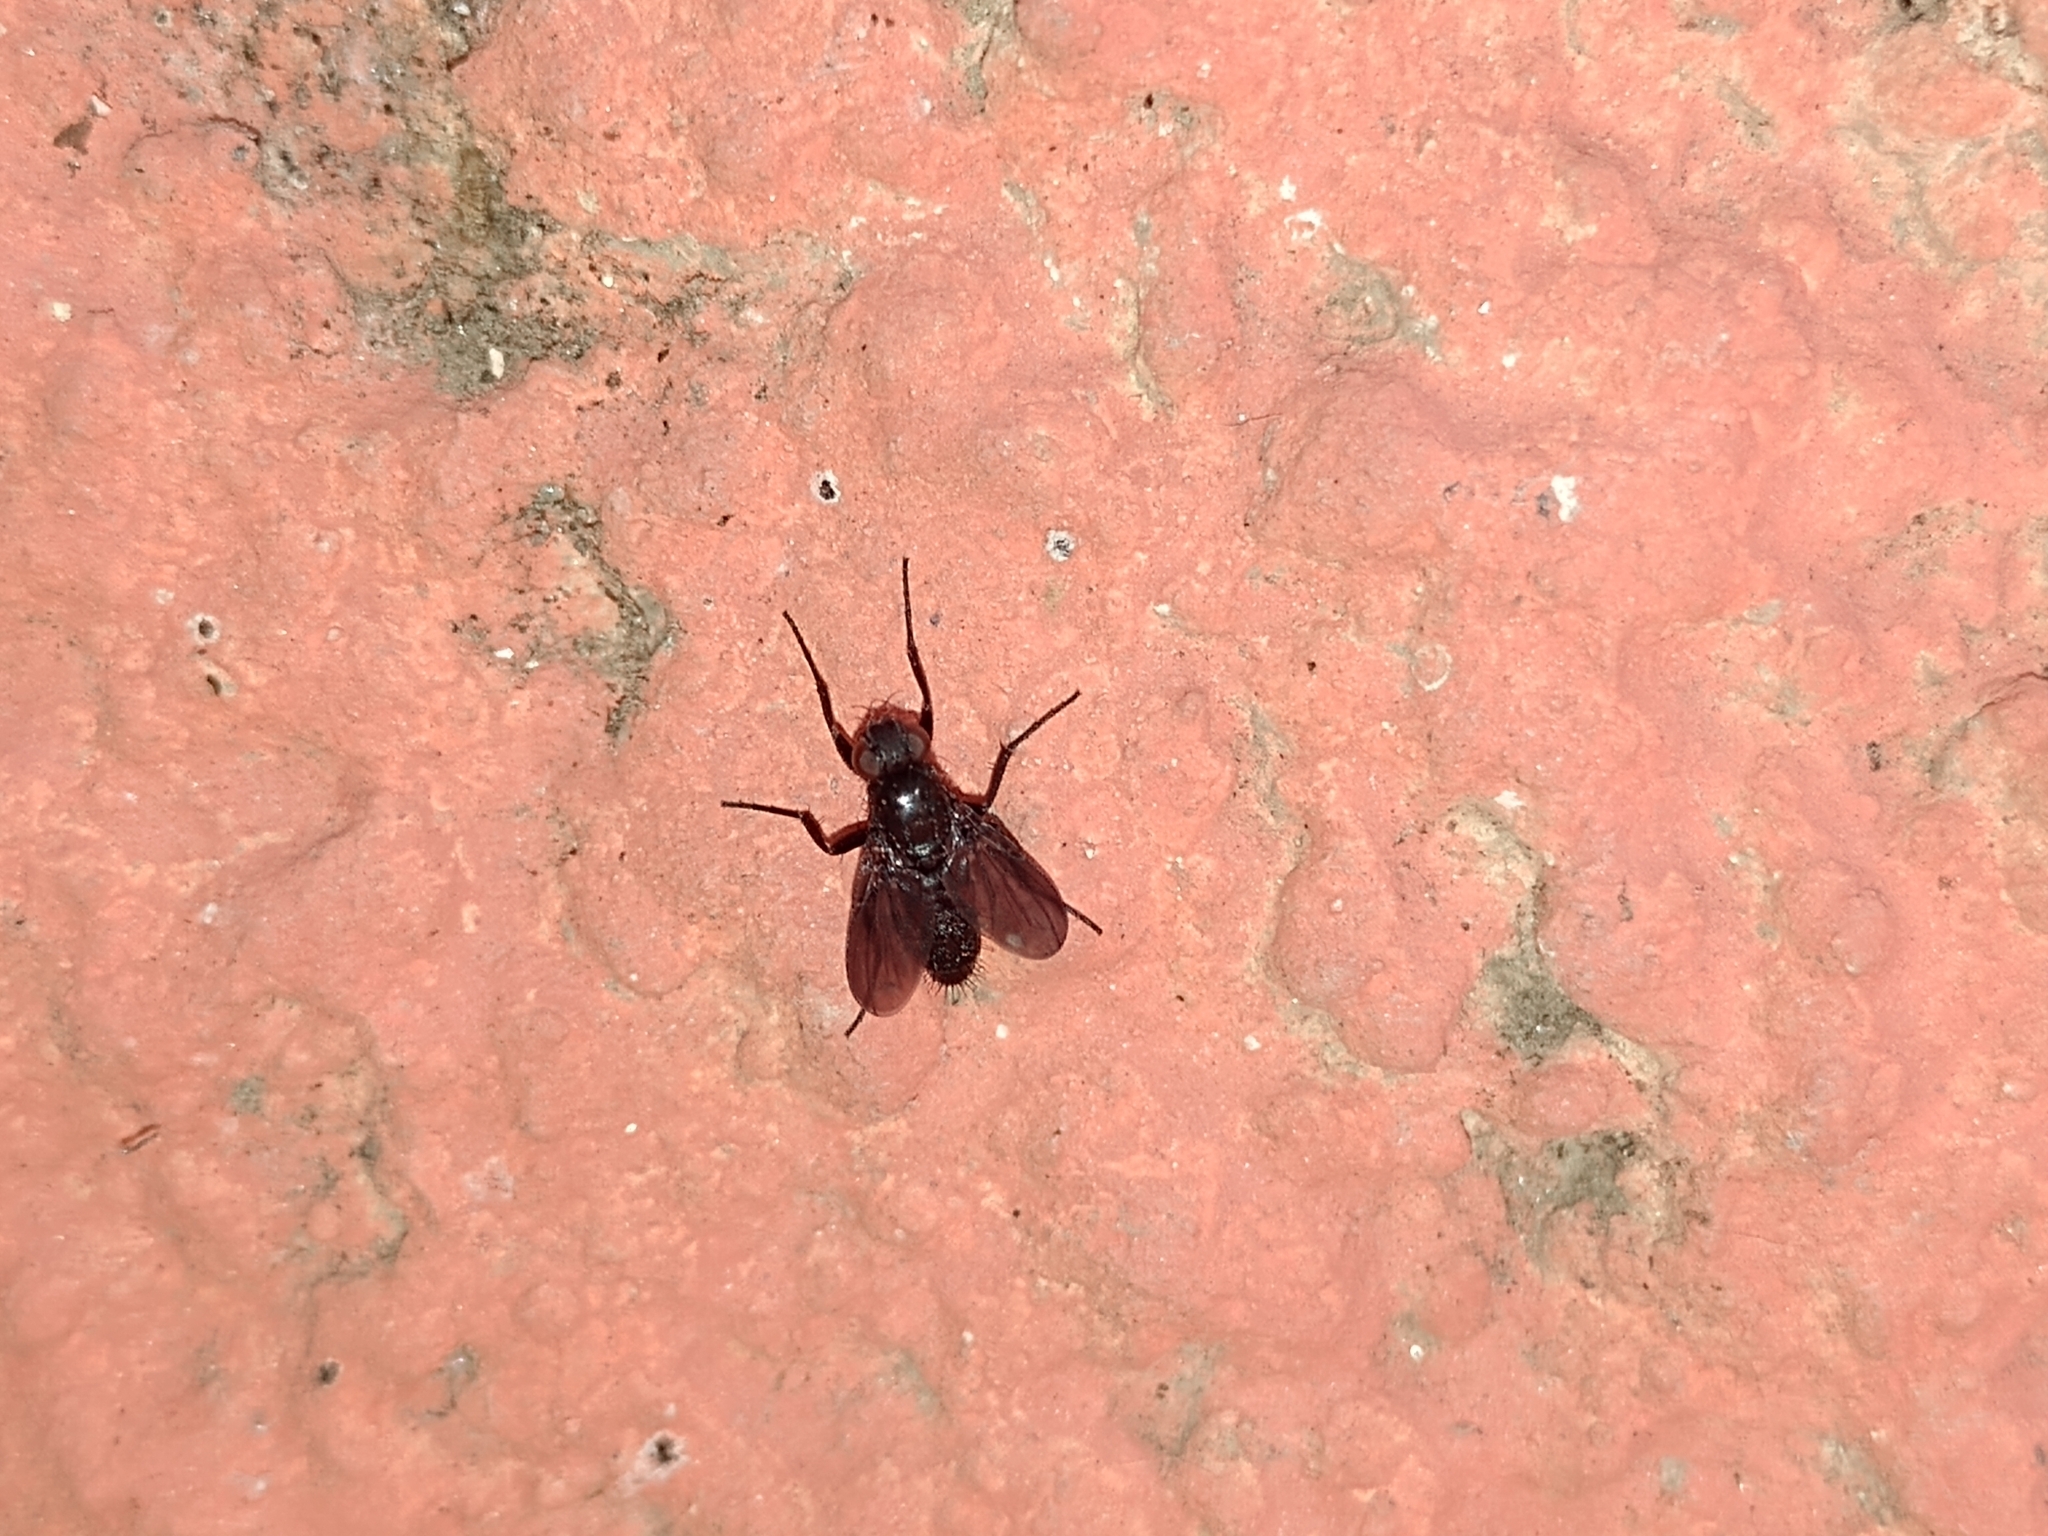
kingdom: Animalia
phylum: Arthropoda
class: Insecta
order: Diptera
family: Calliphoridae
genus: Melanophora
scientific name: Melanophora roralis
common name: Smoky-winged woodlouse-fly
